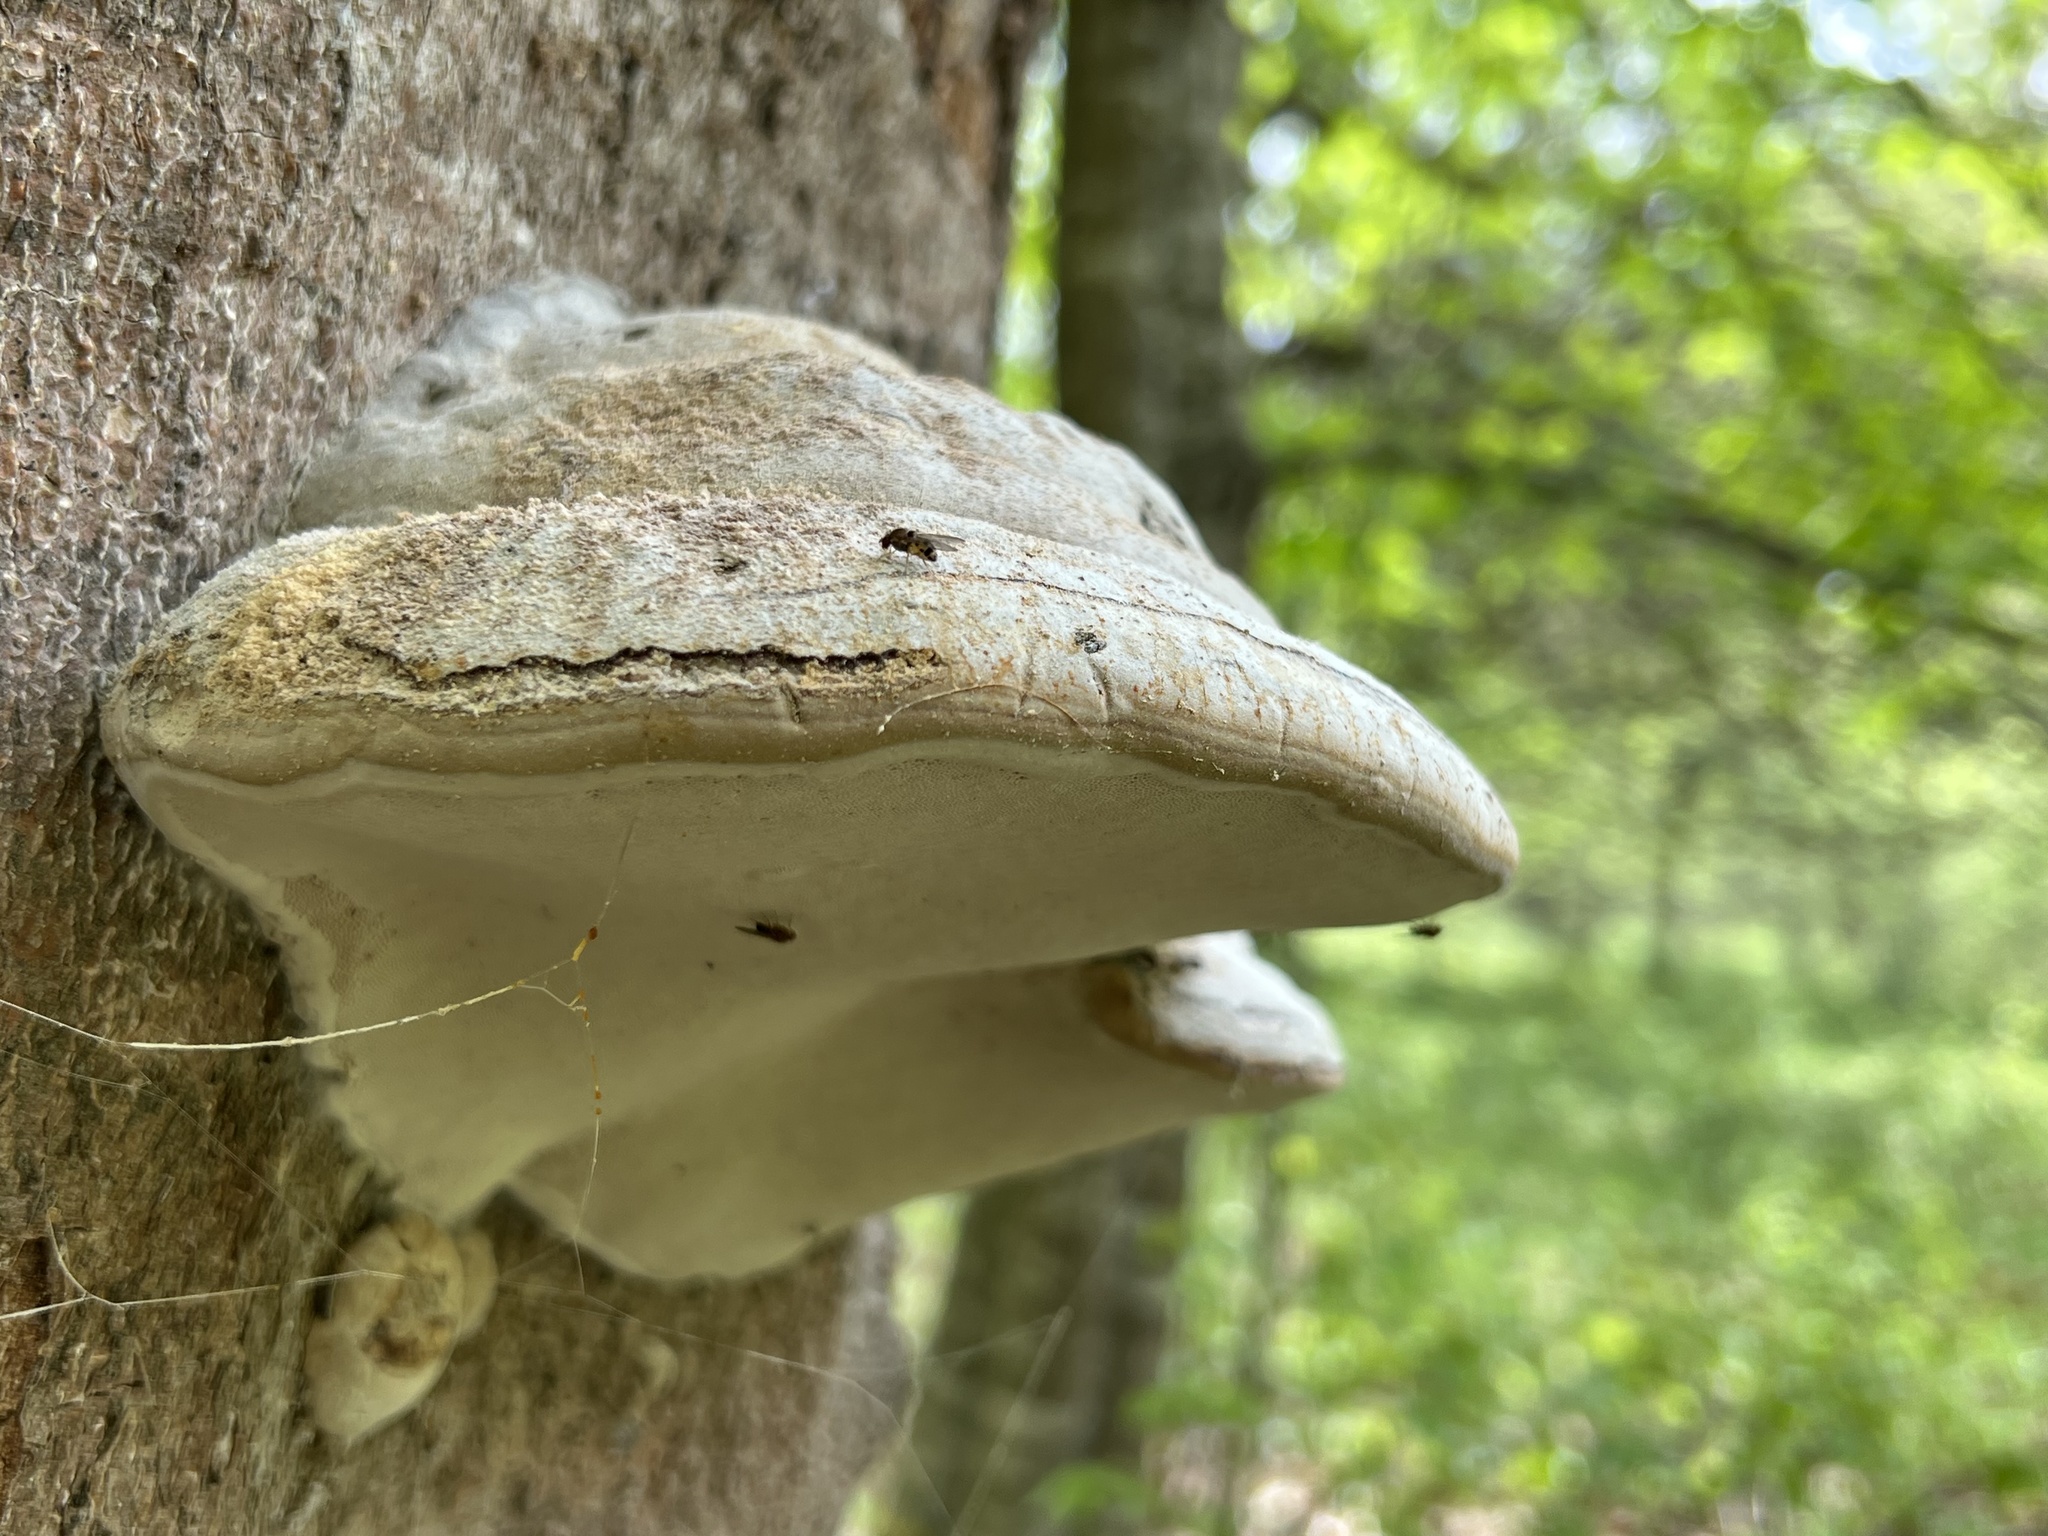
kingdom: Fungi
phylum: Basidiomycota
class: Agaricomycetes
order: Polyporales
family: Polyporaceae
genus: Fomes
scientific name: Fomes fomentarius
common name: Hoof fungus
